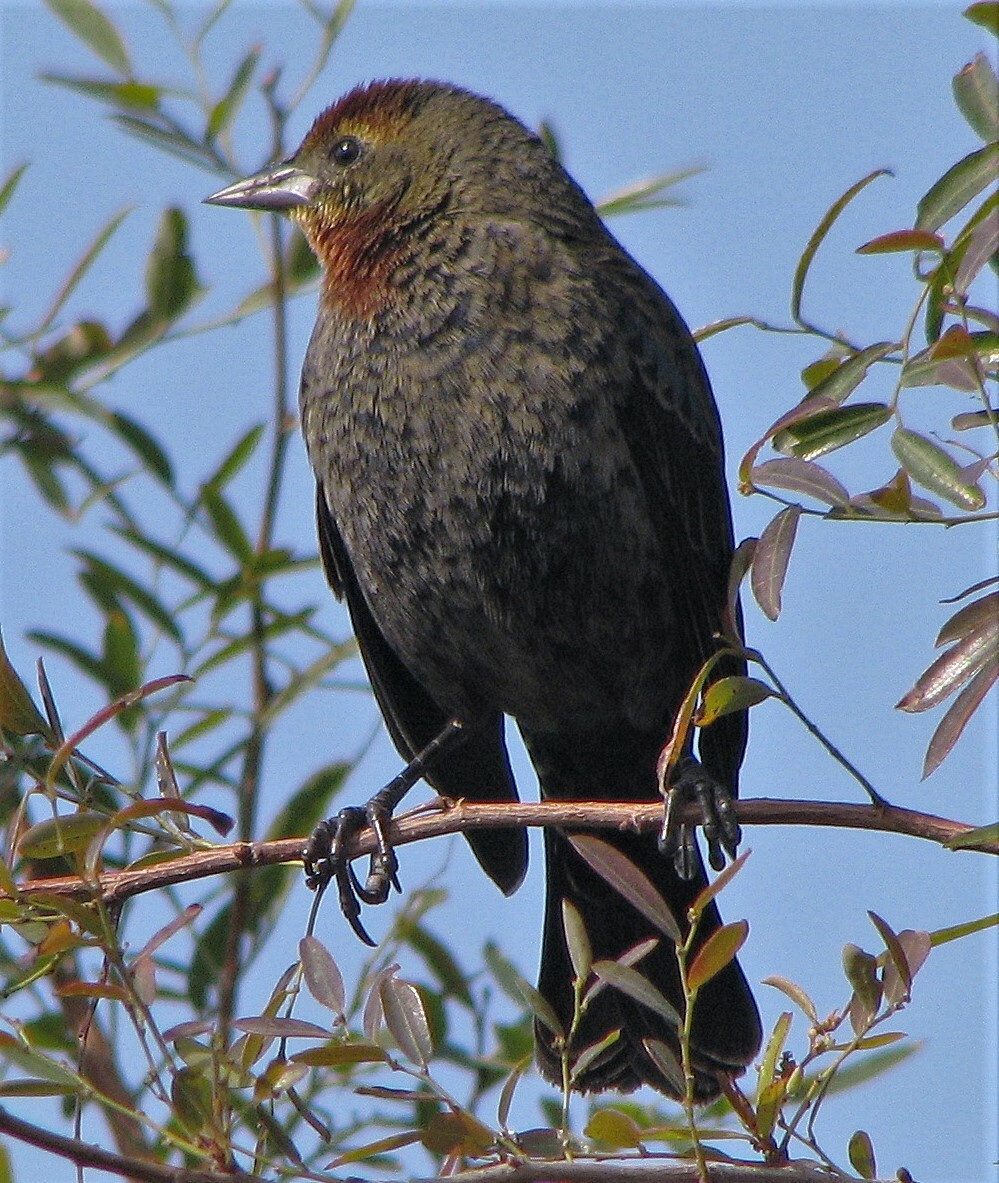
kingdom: Animalia
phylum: Chordata
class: Aves
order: Passeriformes
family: Icteridae
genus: Chrysomus
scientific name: Chrysomus ruficapillus
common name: Chestnut-capped blackbird
